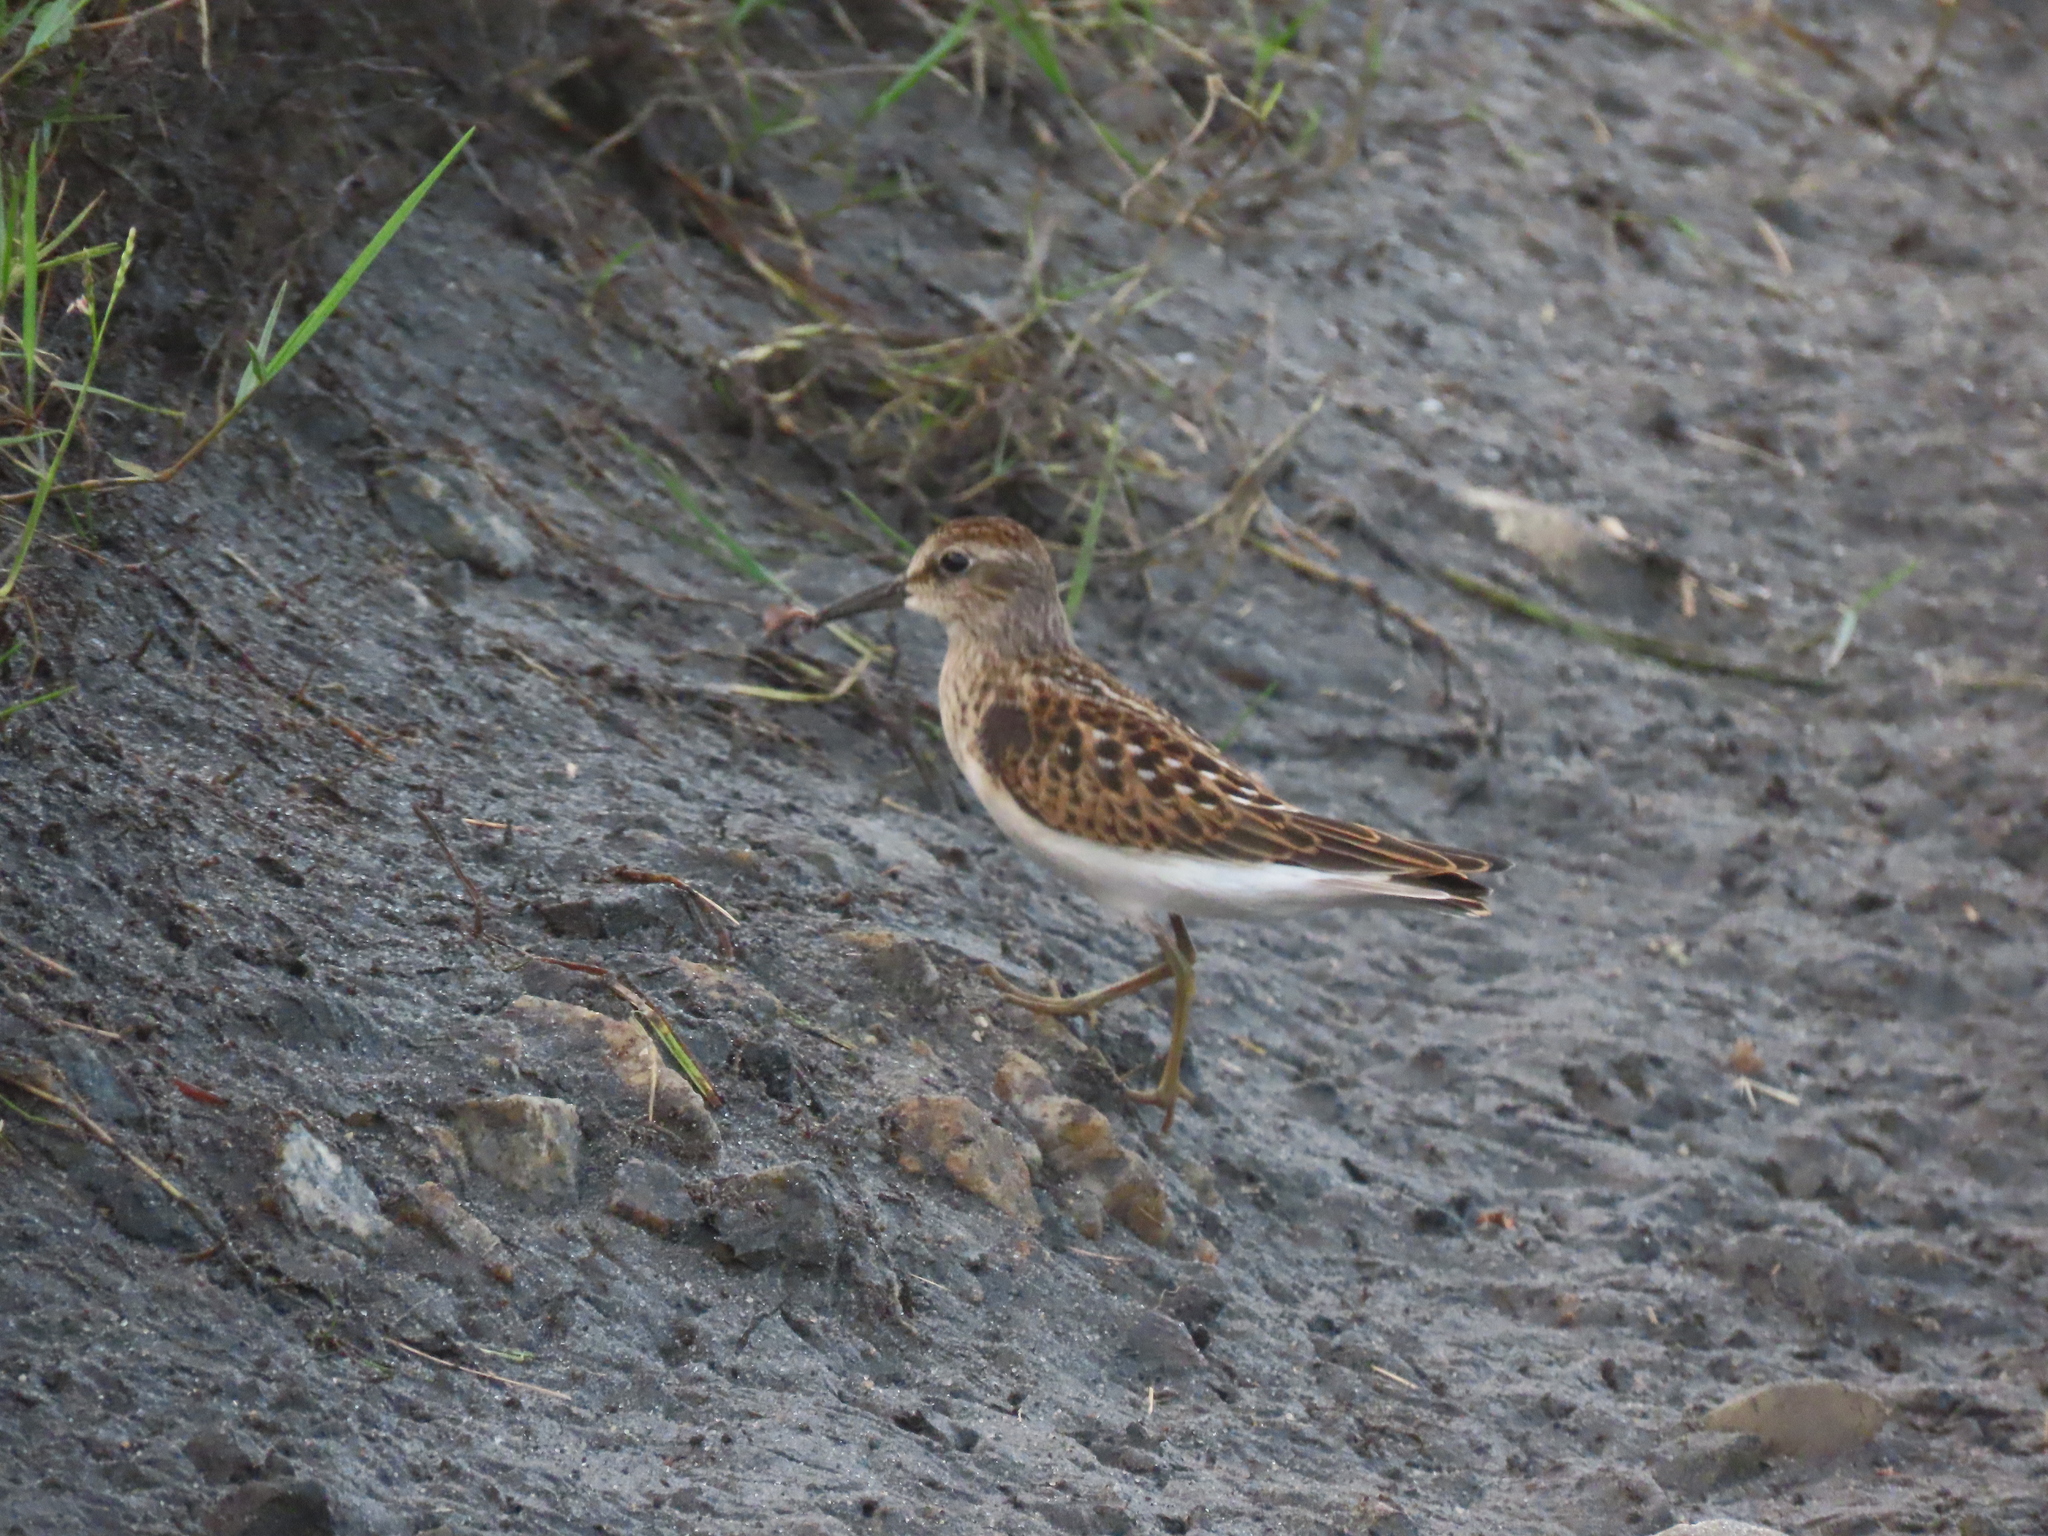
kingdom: Animalia
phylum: Chordata
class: Aves
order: Charadriiformes
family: Scolopacidae
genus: Calidris
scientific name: Calidris minutilla
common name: Least sandpiper
